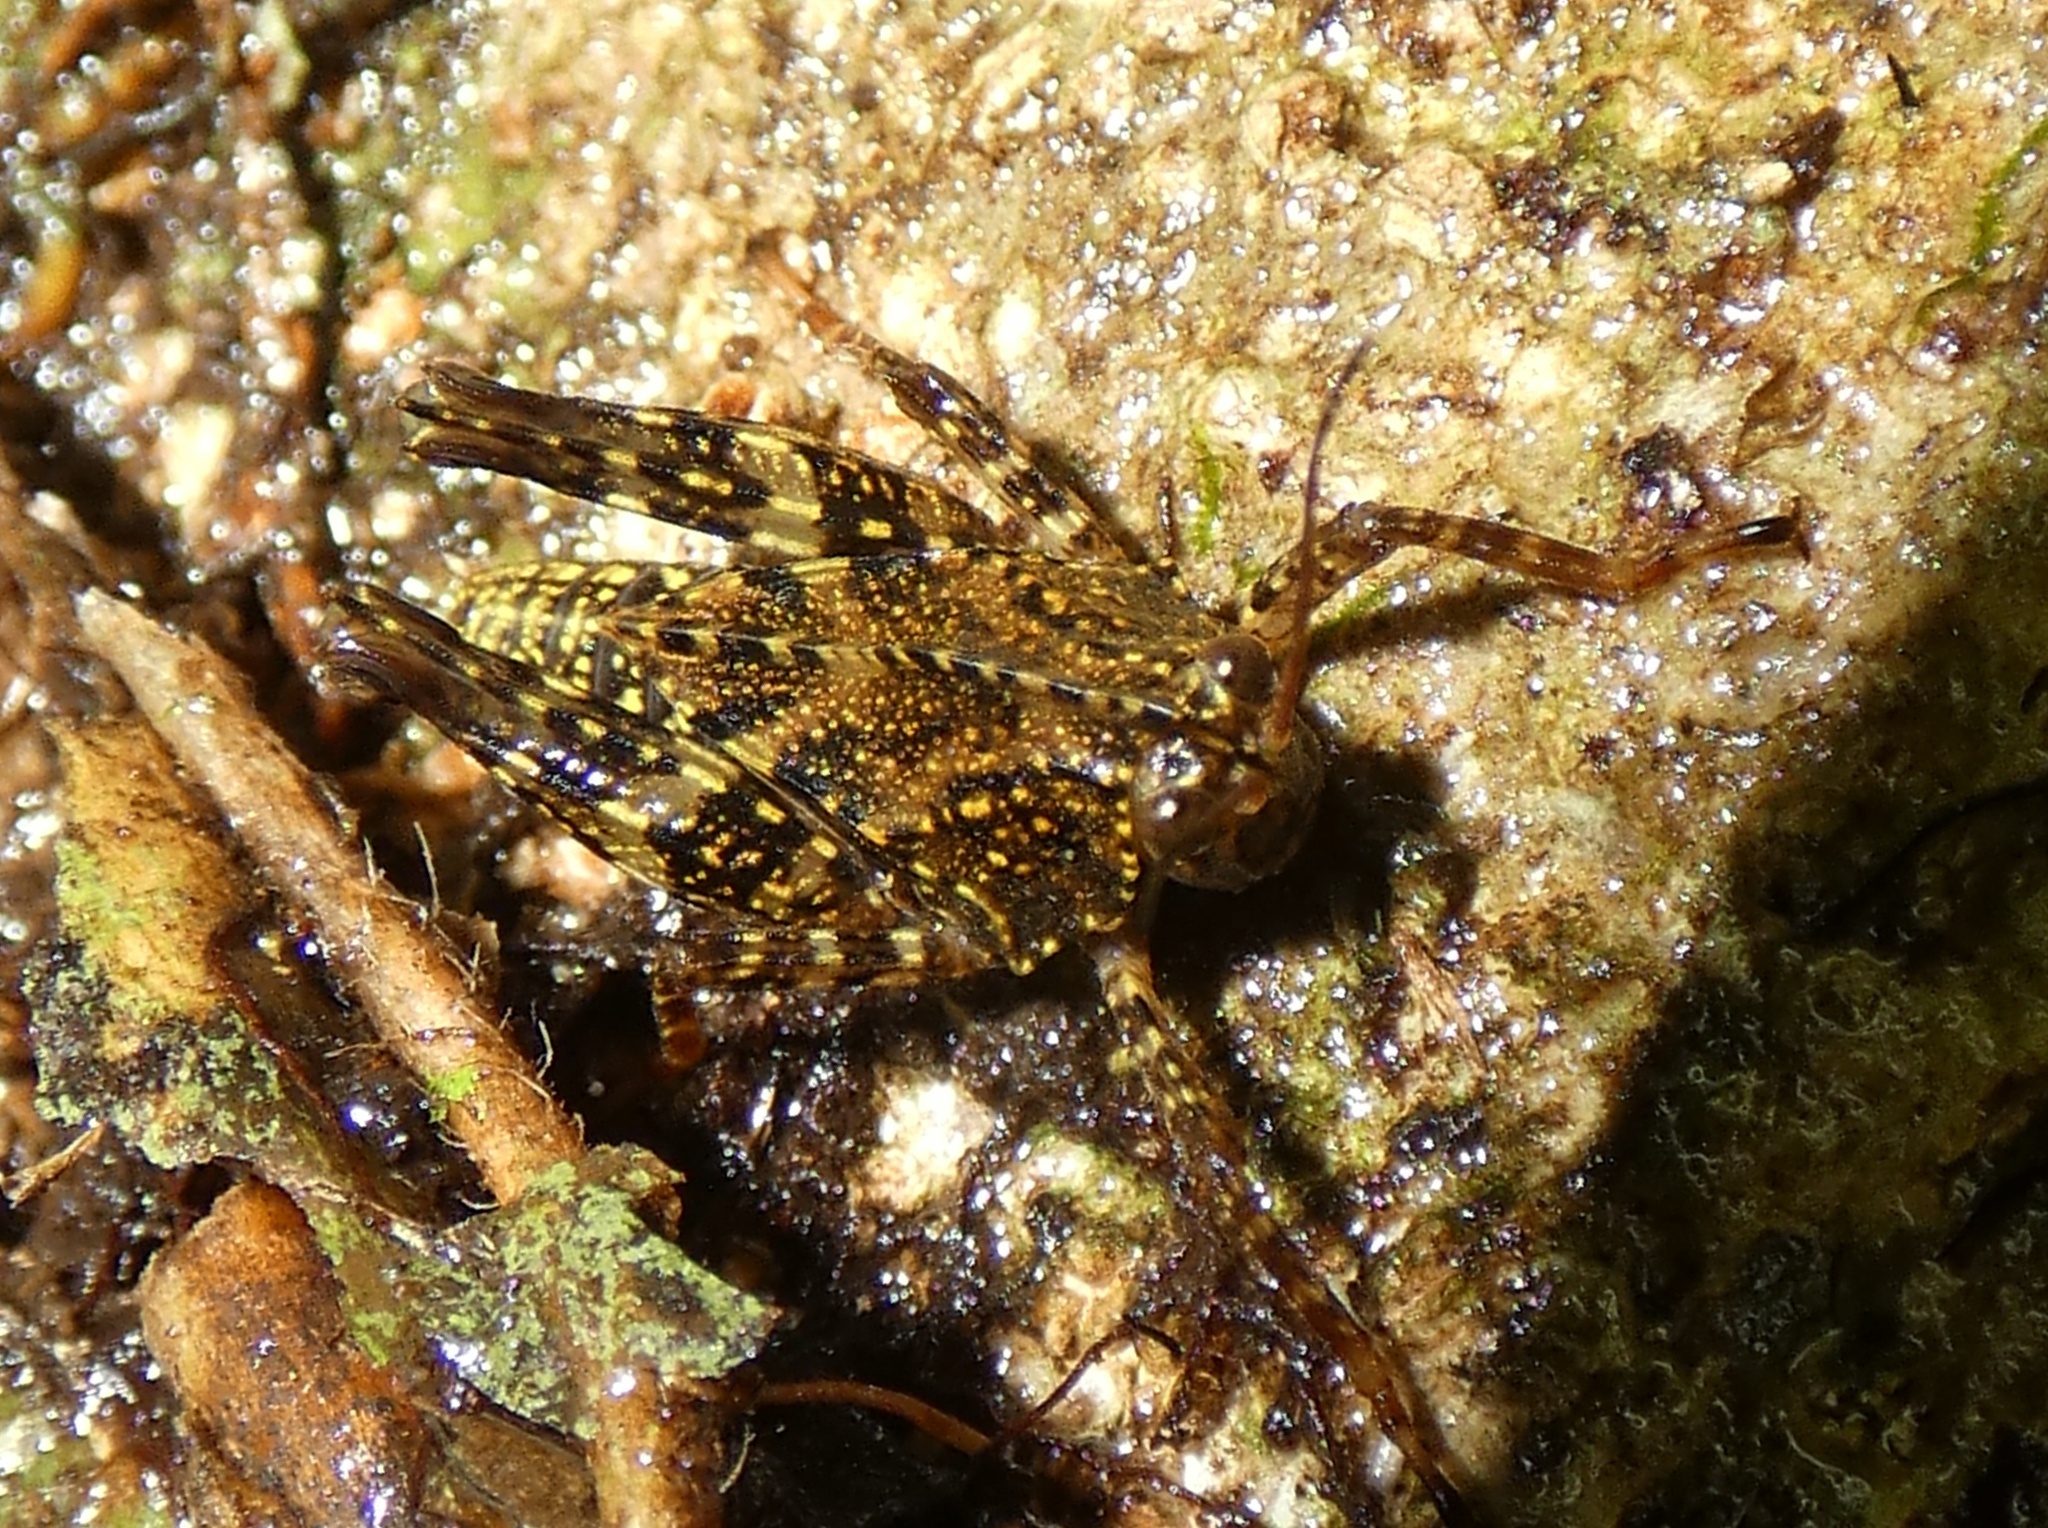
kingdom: Animalia
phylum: Arthropoda
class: Insecta
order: Orthoptera
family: Tetrigidae
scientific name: Tetrigidae
